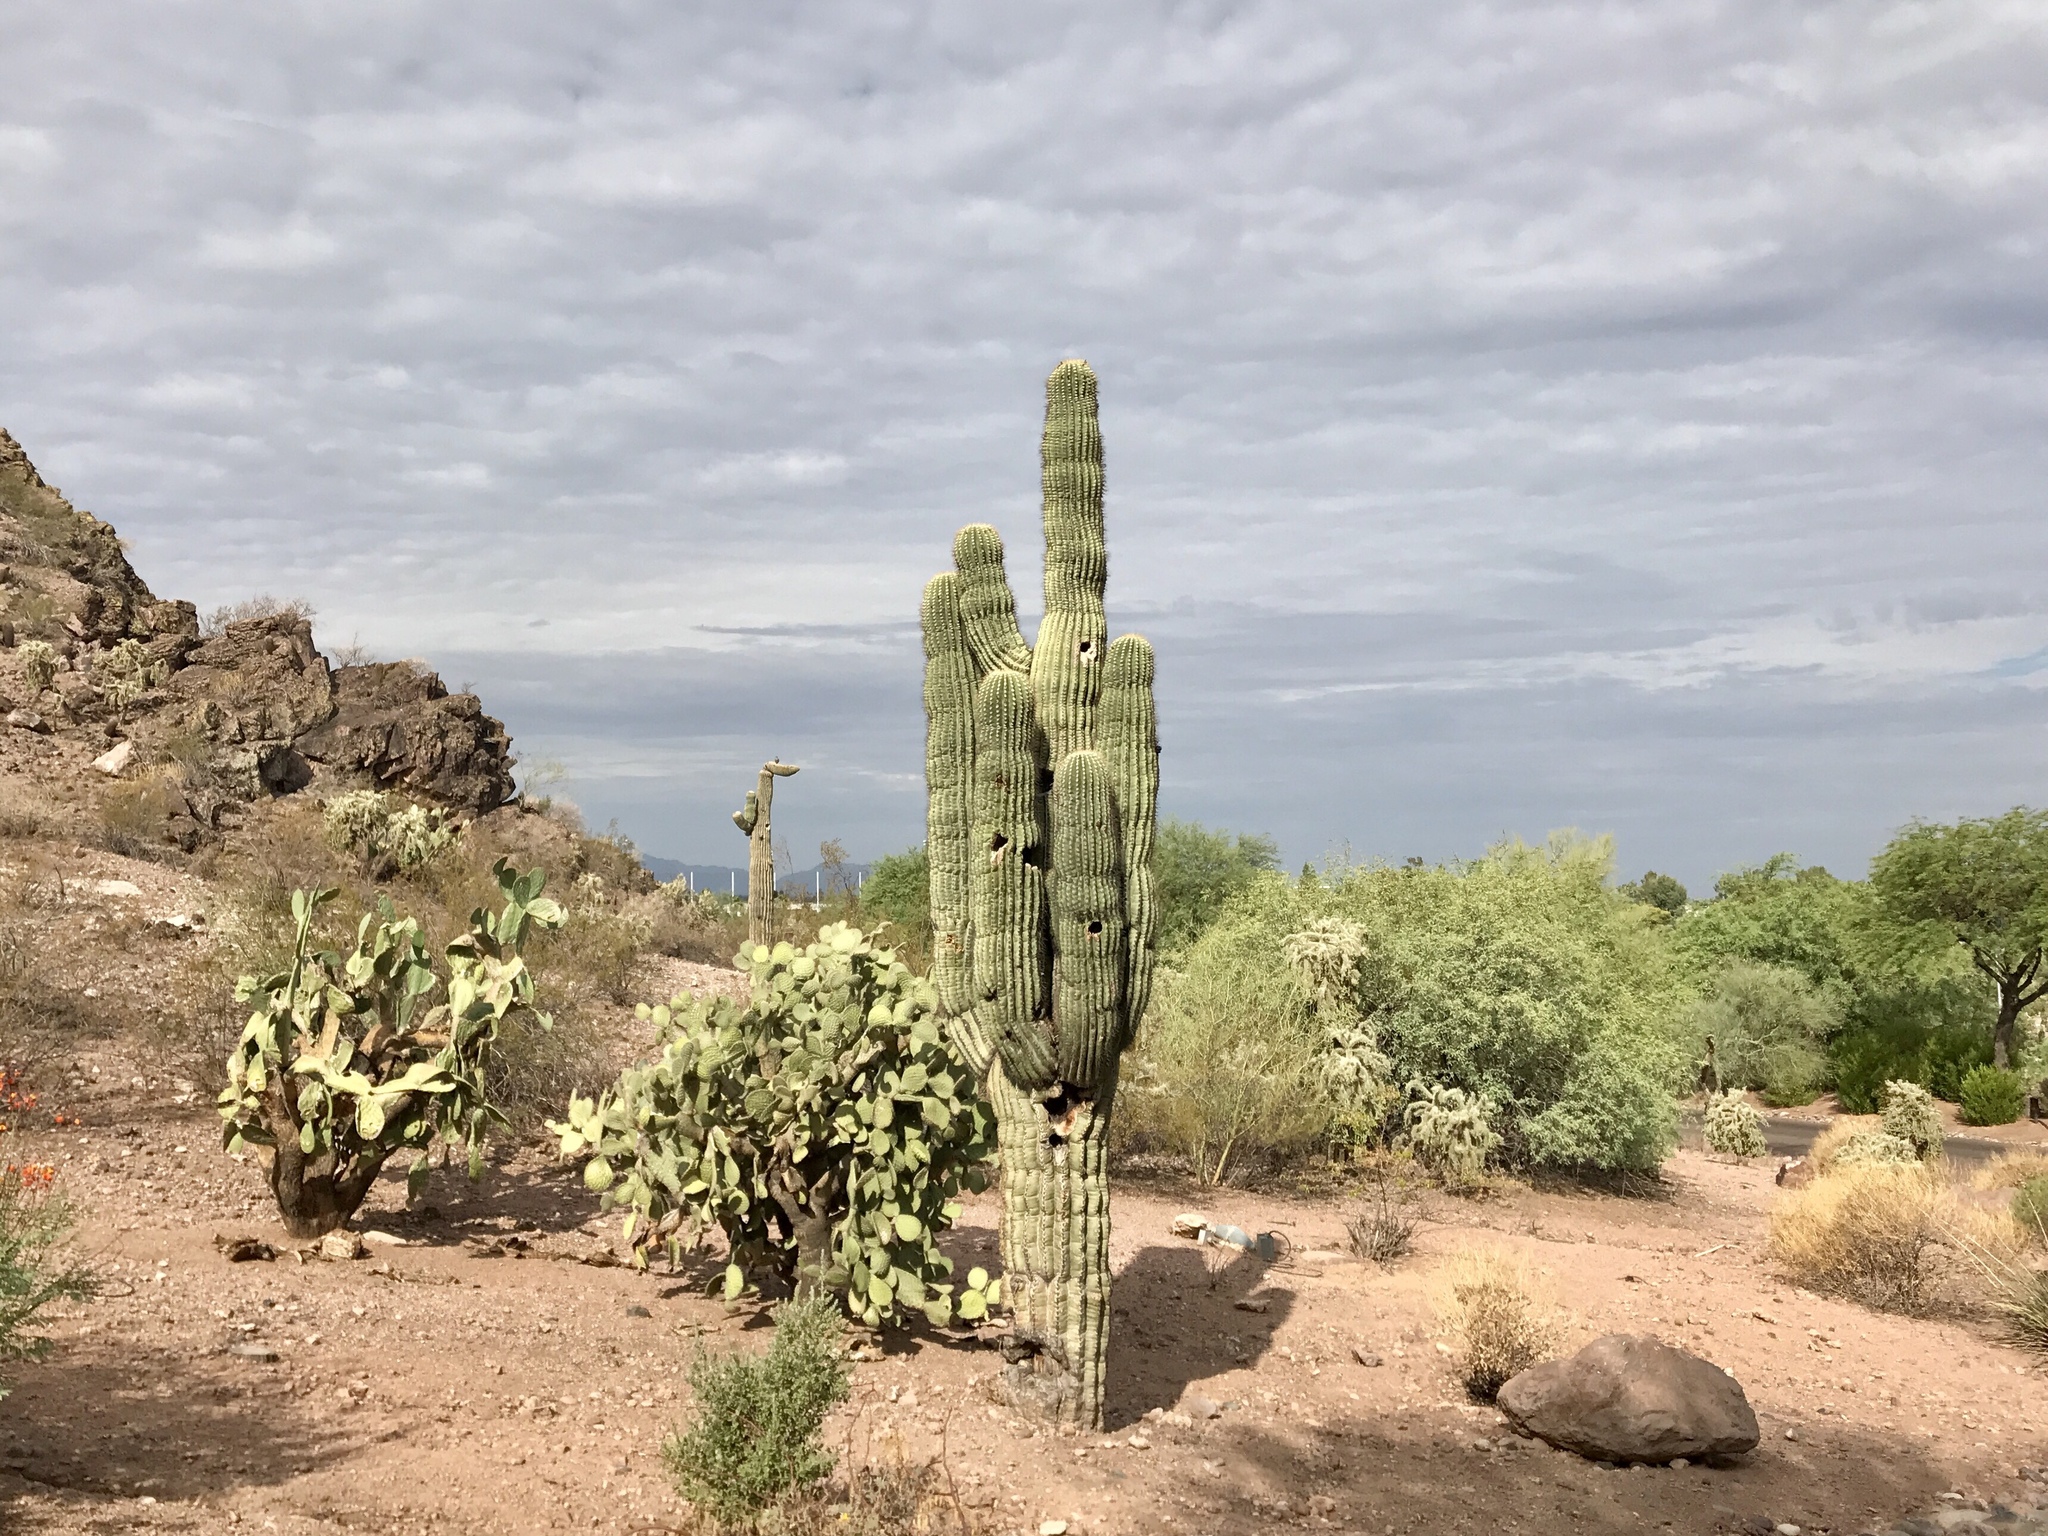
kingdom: Plantae
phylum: Tracheophyta
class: Magnoliopsida
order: Caryophyllales
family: Cactaceae
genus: Carnegiea
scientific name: Carnegiea gigantea
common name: Saguaro
